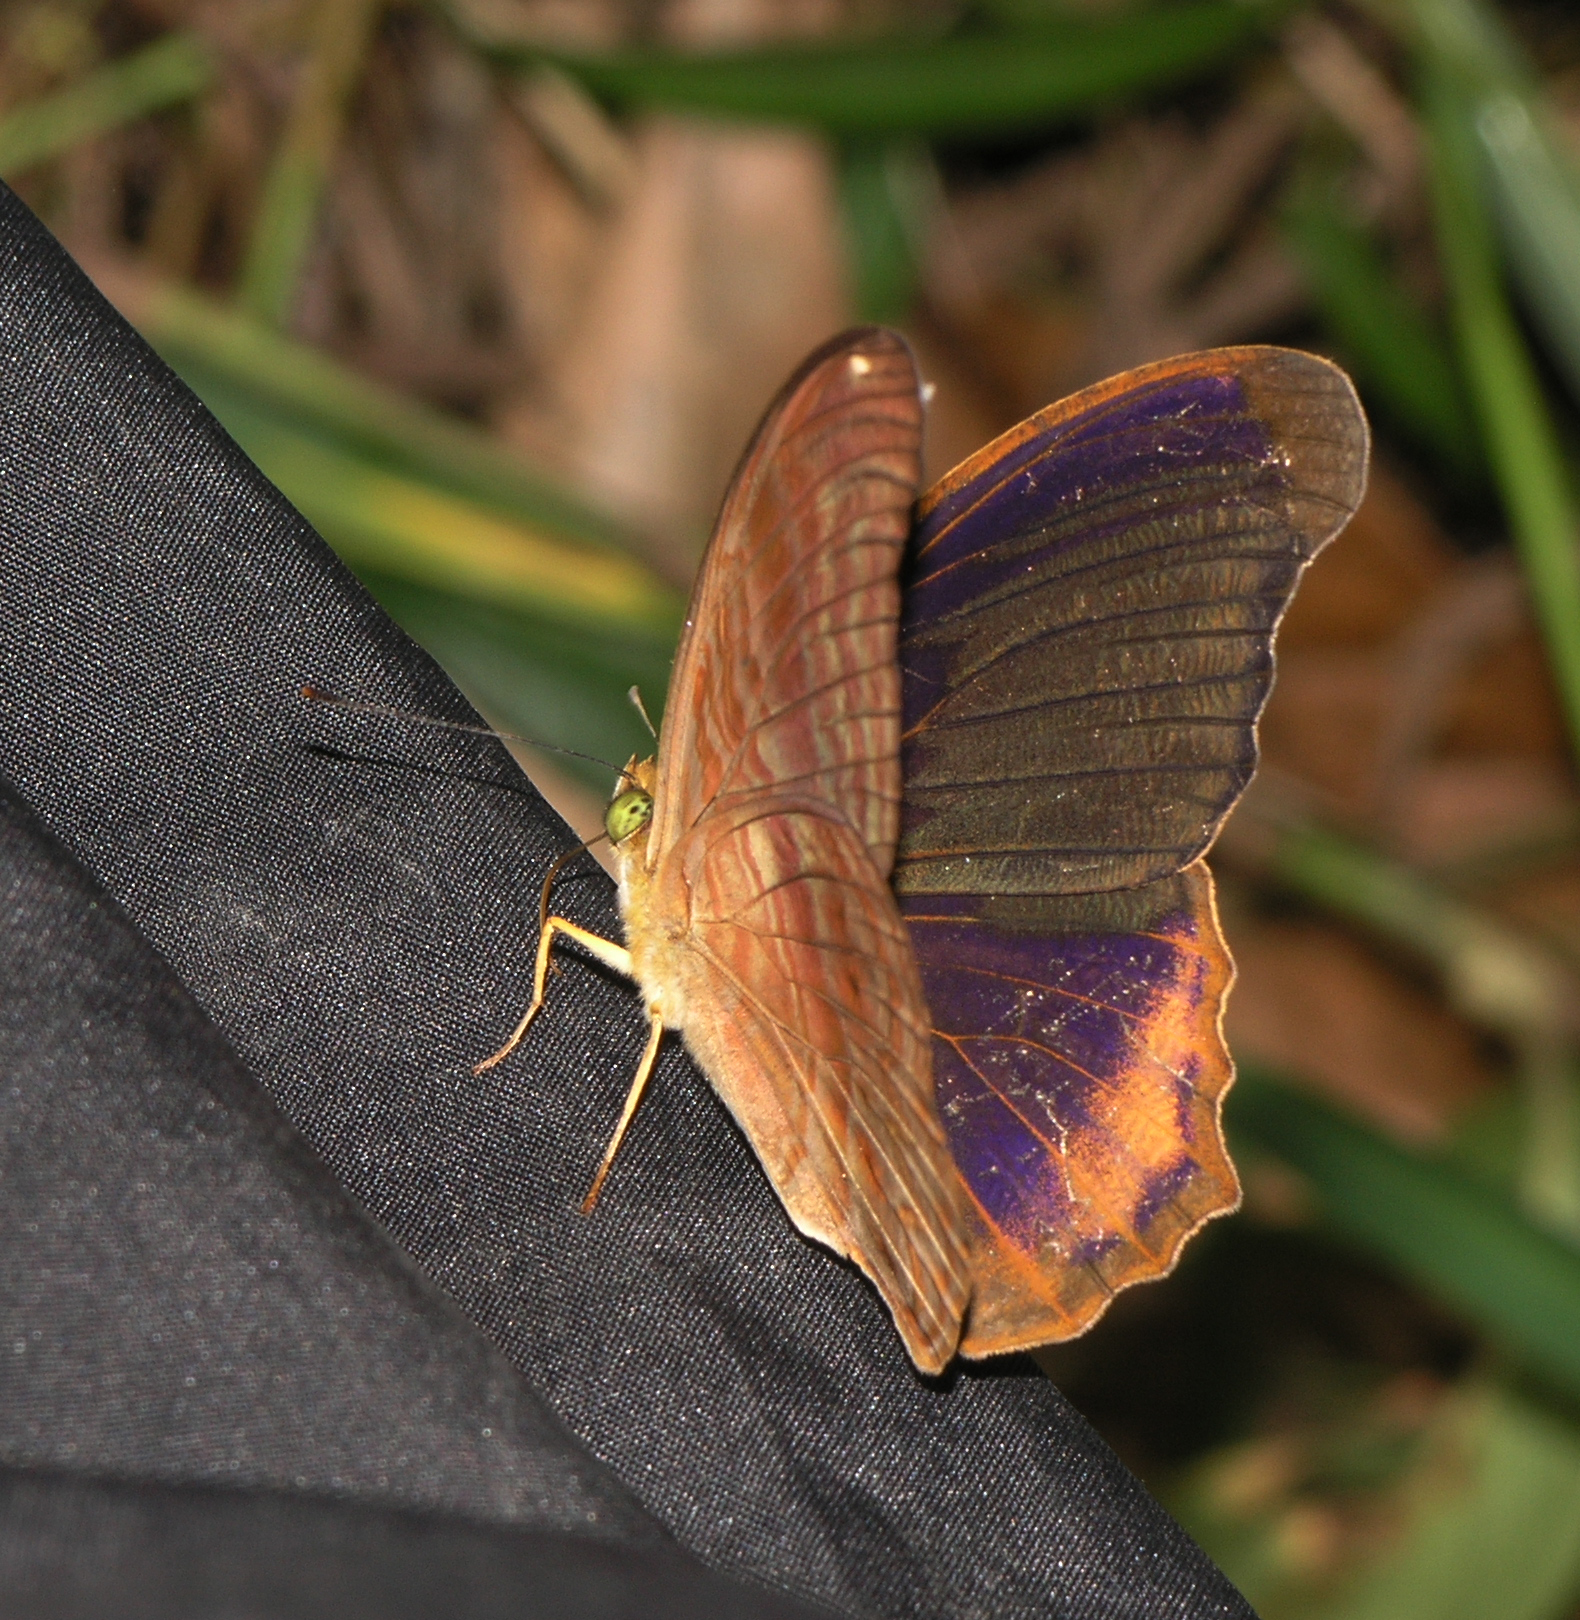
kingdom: Animalia
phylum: Arthropoda
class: Insecta
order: Lepidoptera
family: Nymphalidae
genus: Terinos
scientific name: Terinos terpander
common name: Royal assyrian
